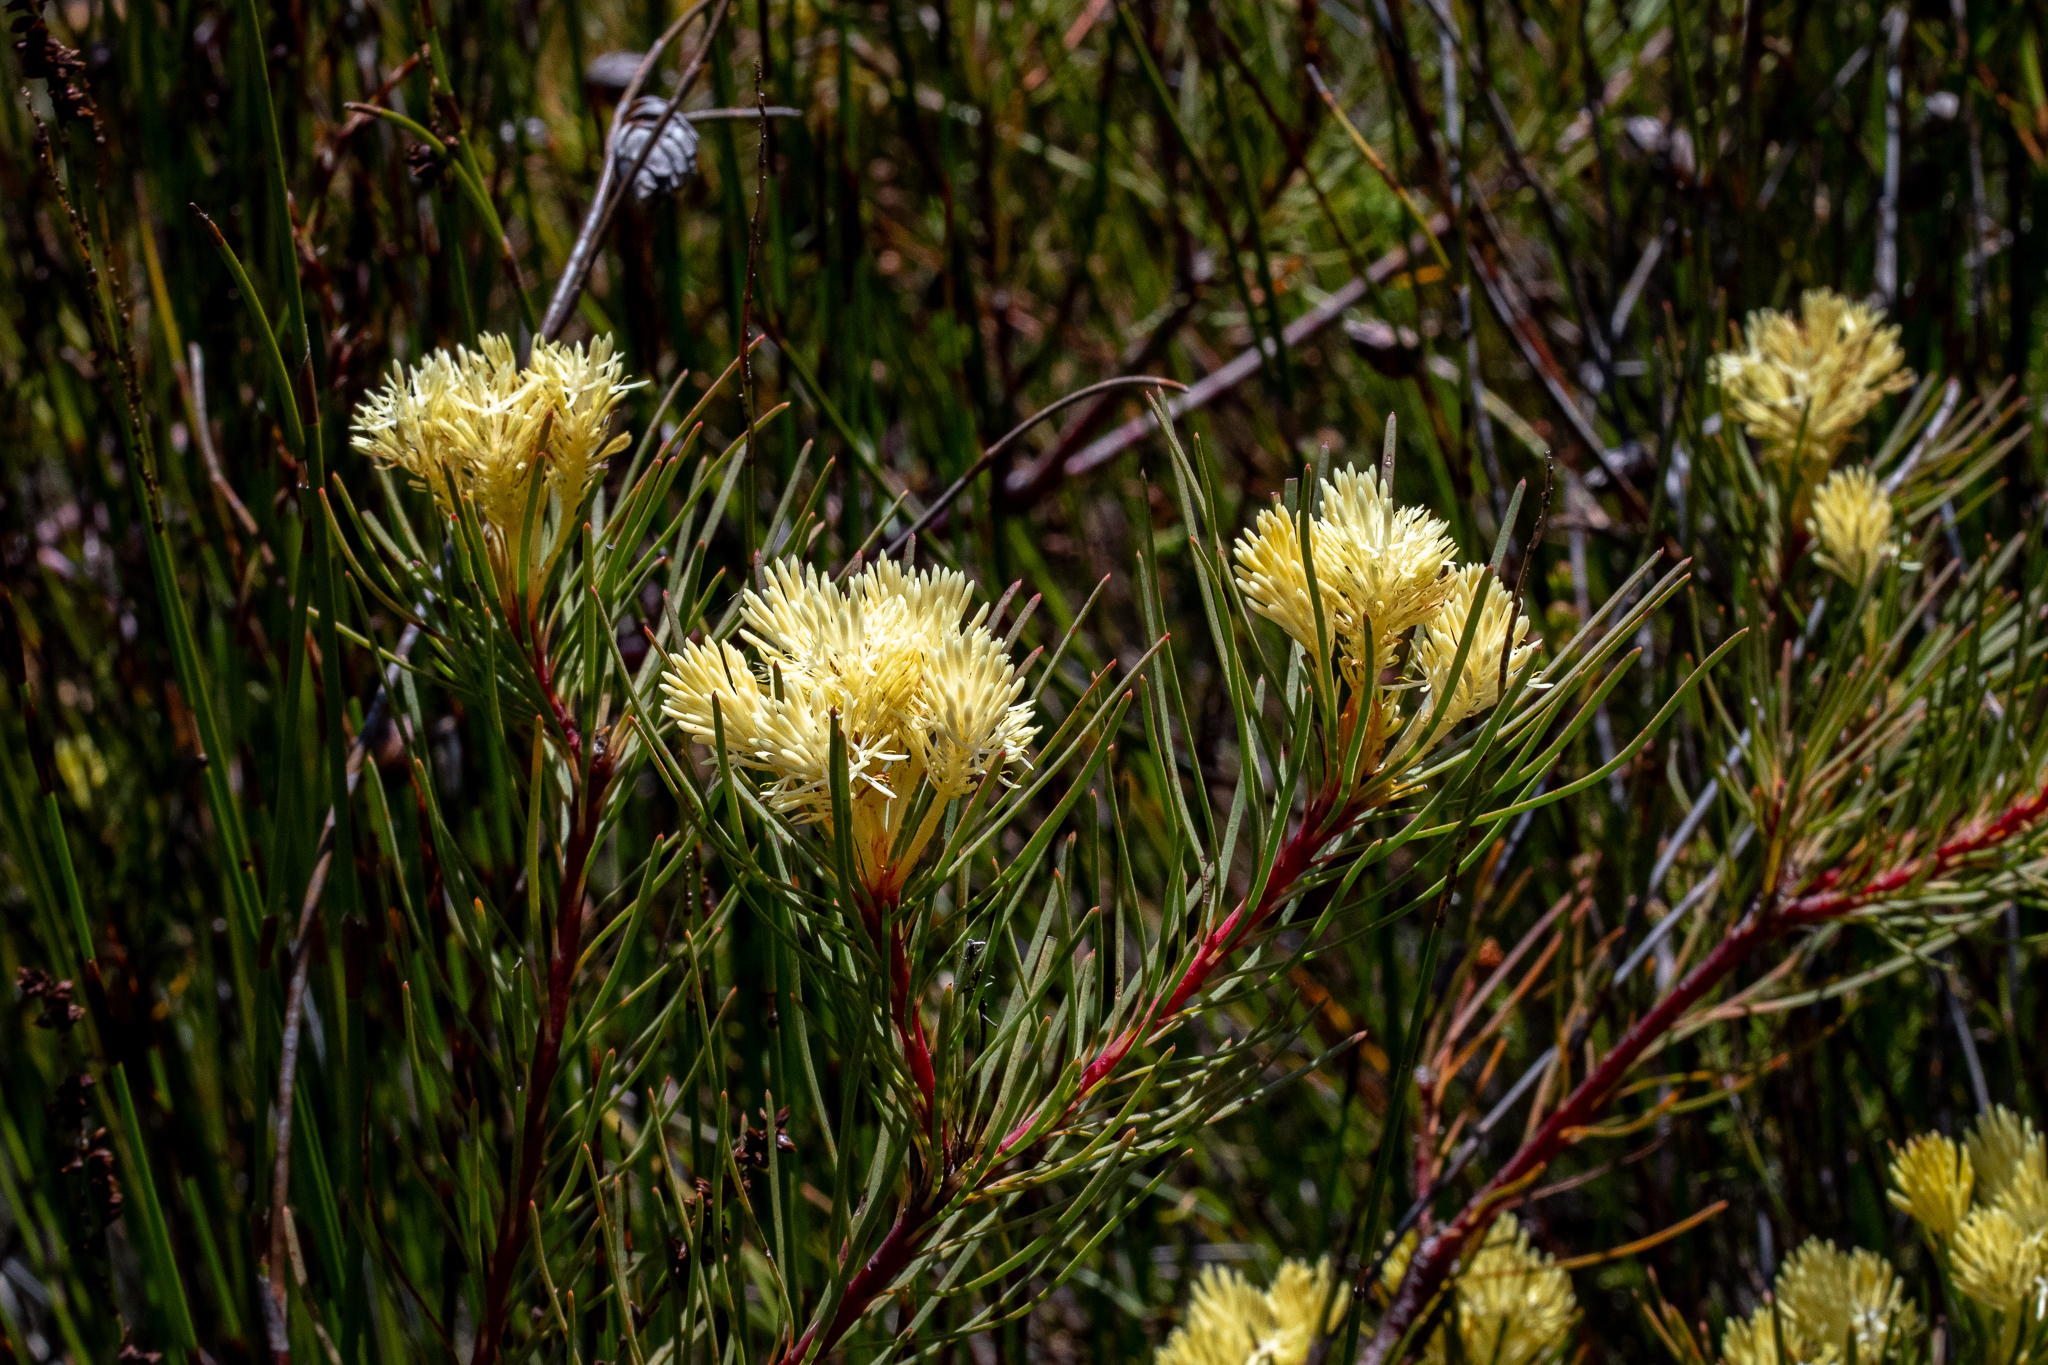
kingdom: Plantae
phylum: Tracheophyta
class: Magnoliopsida
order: Proteales
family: Proteaceae
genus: Aulax
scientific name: Aulax cancellata
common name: Channel-leaf featherbush
